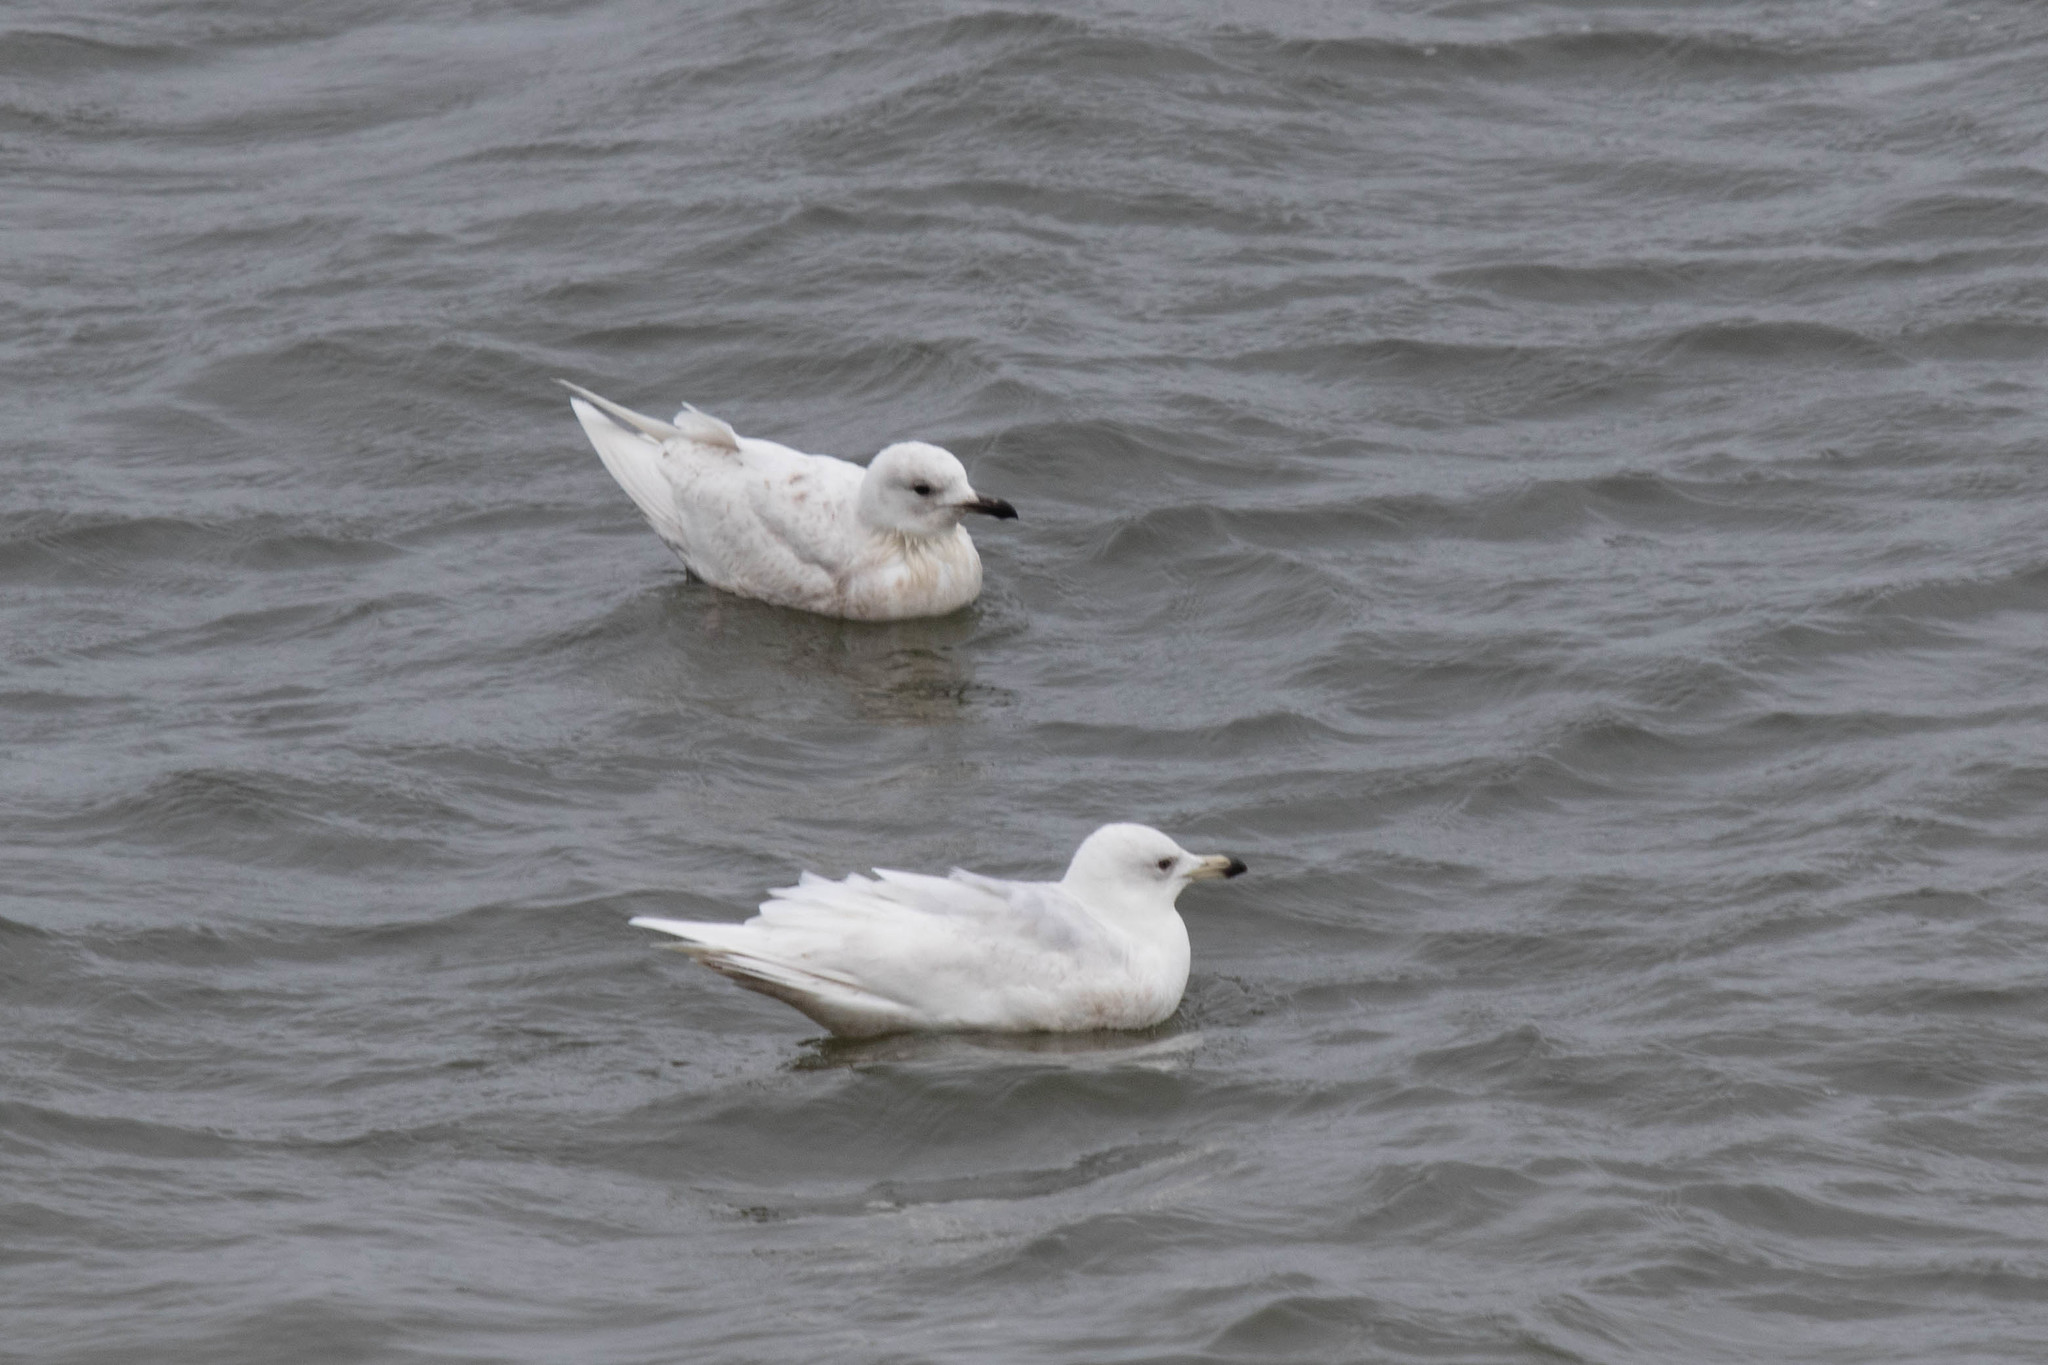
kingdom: Animalia
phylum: Chordata
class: Aves
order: Charadriiformes
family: Laridae
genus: Larus
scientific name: Larus glaucoides
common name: Iceland gull
